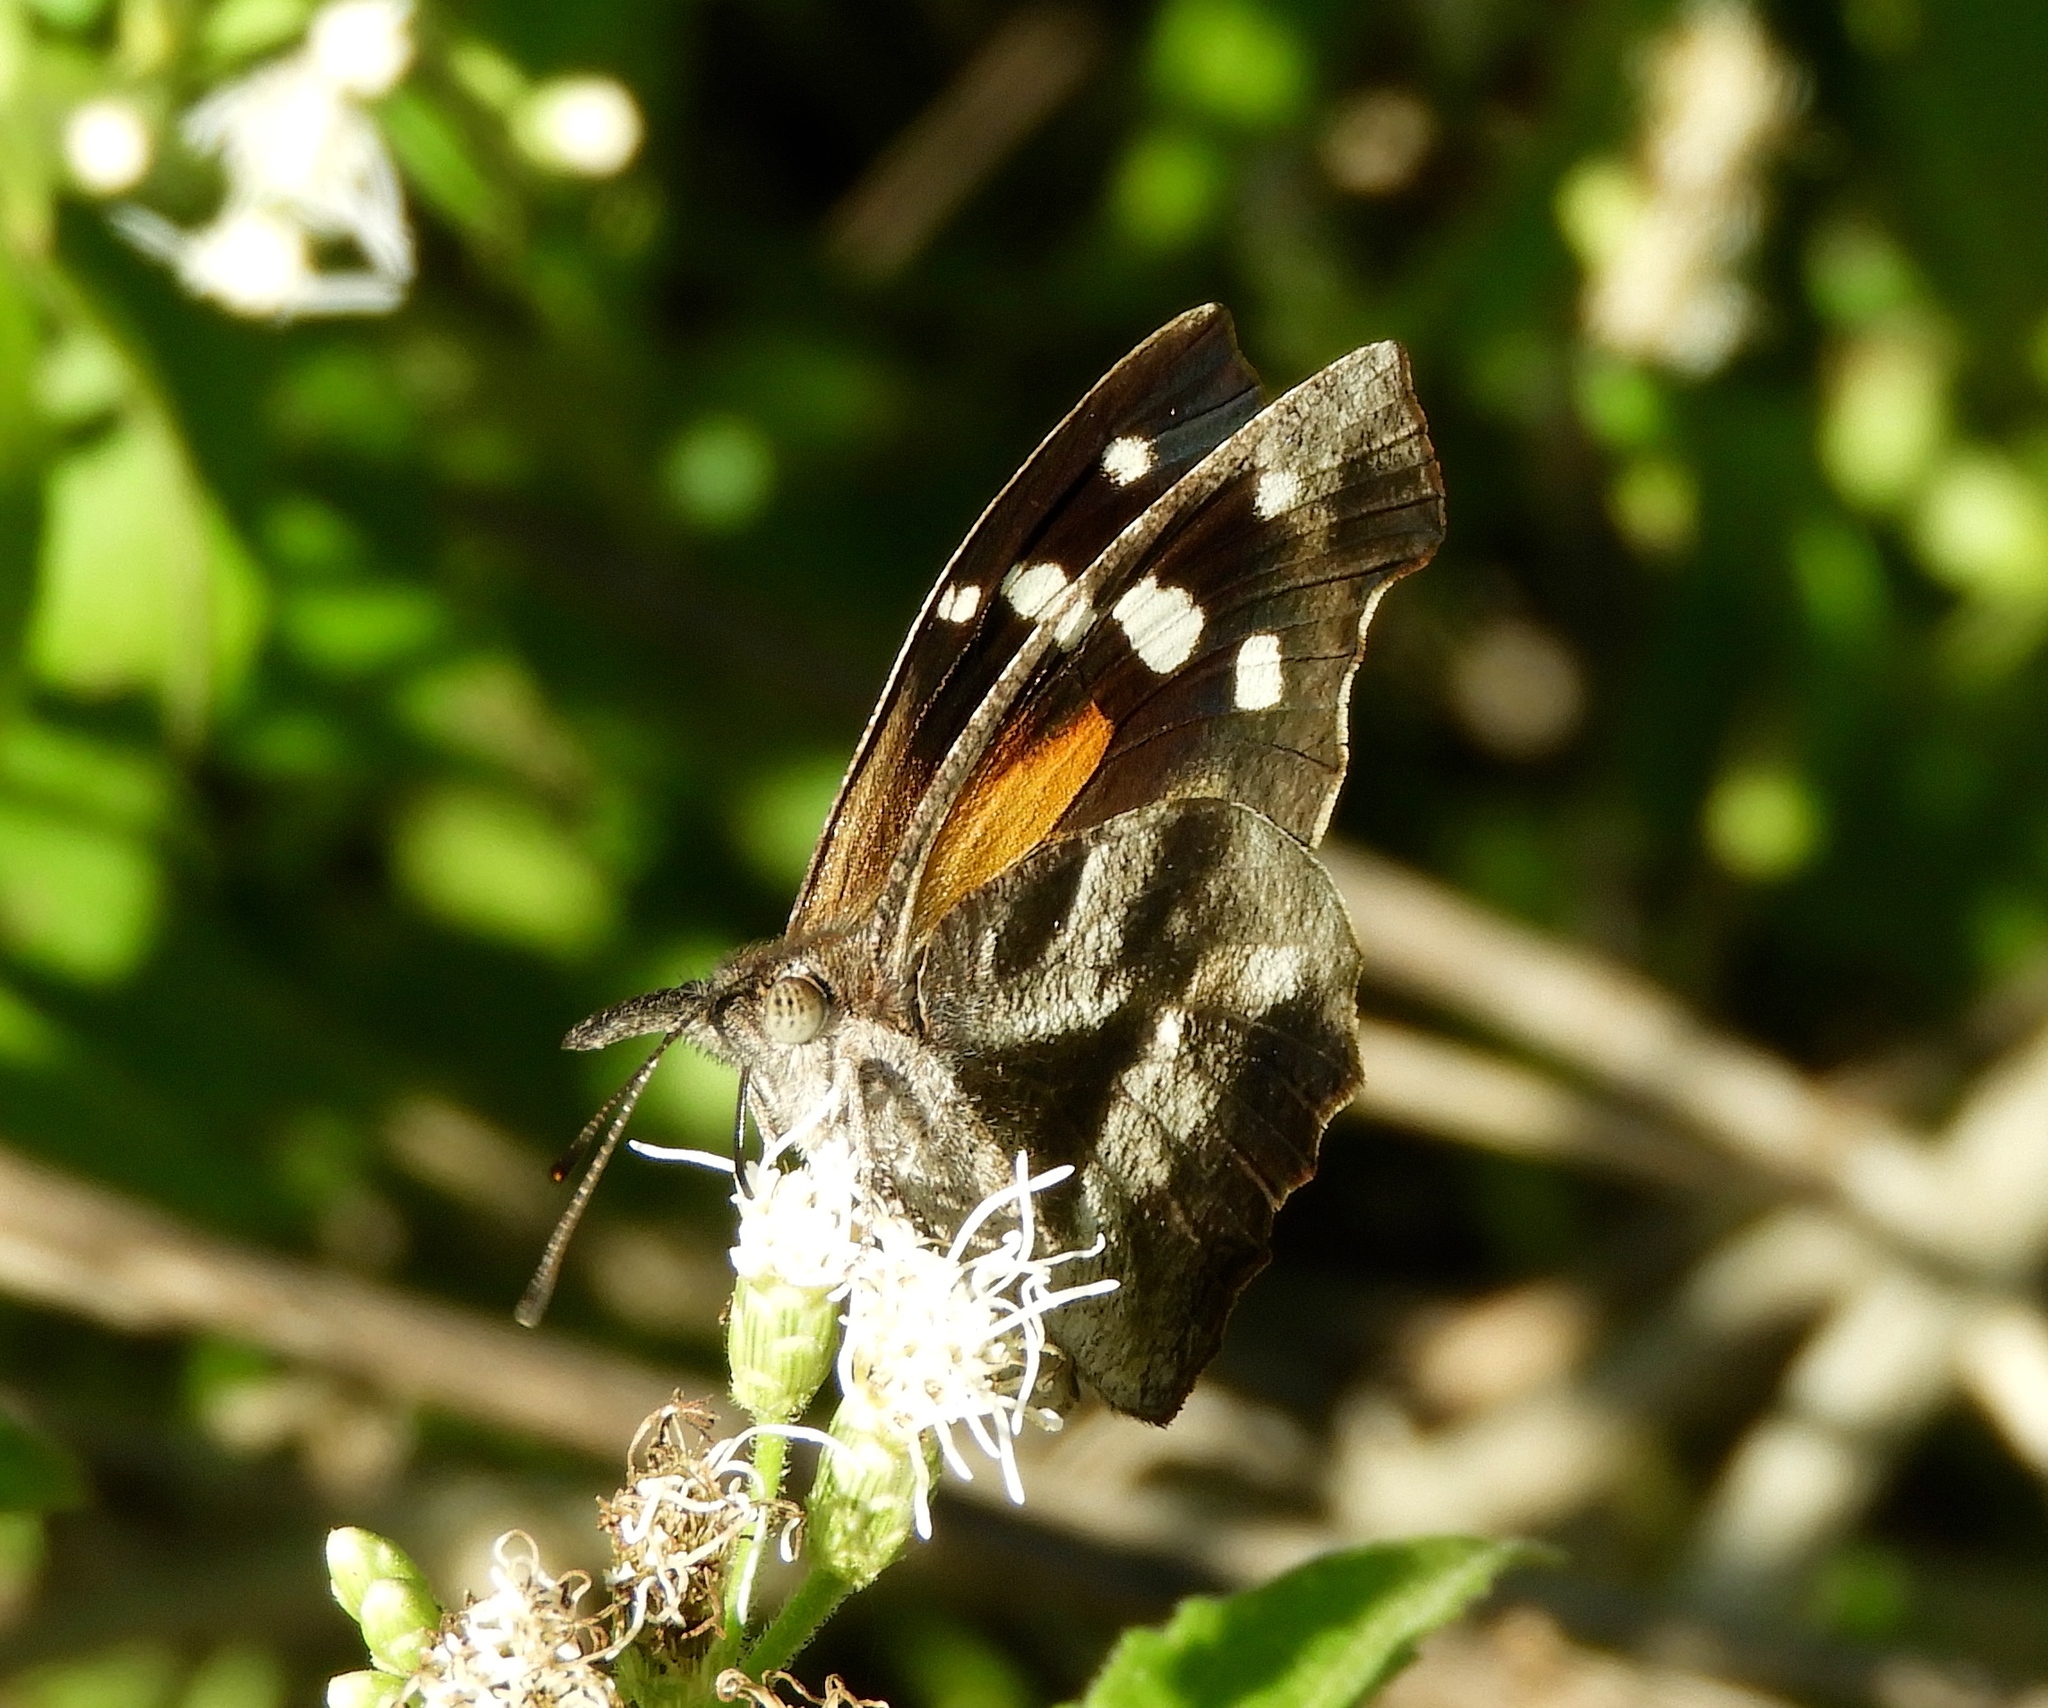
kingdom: Animalia
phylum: Arthropoda
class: Insecta
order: Lepidoptera
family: Nymphalidae
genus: Libytheana
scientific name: Libytheana carinenta
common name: American snout
